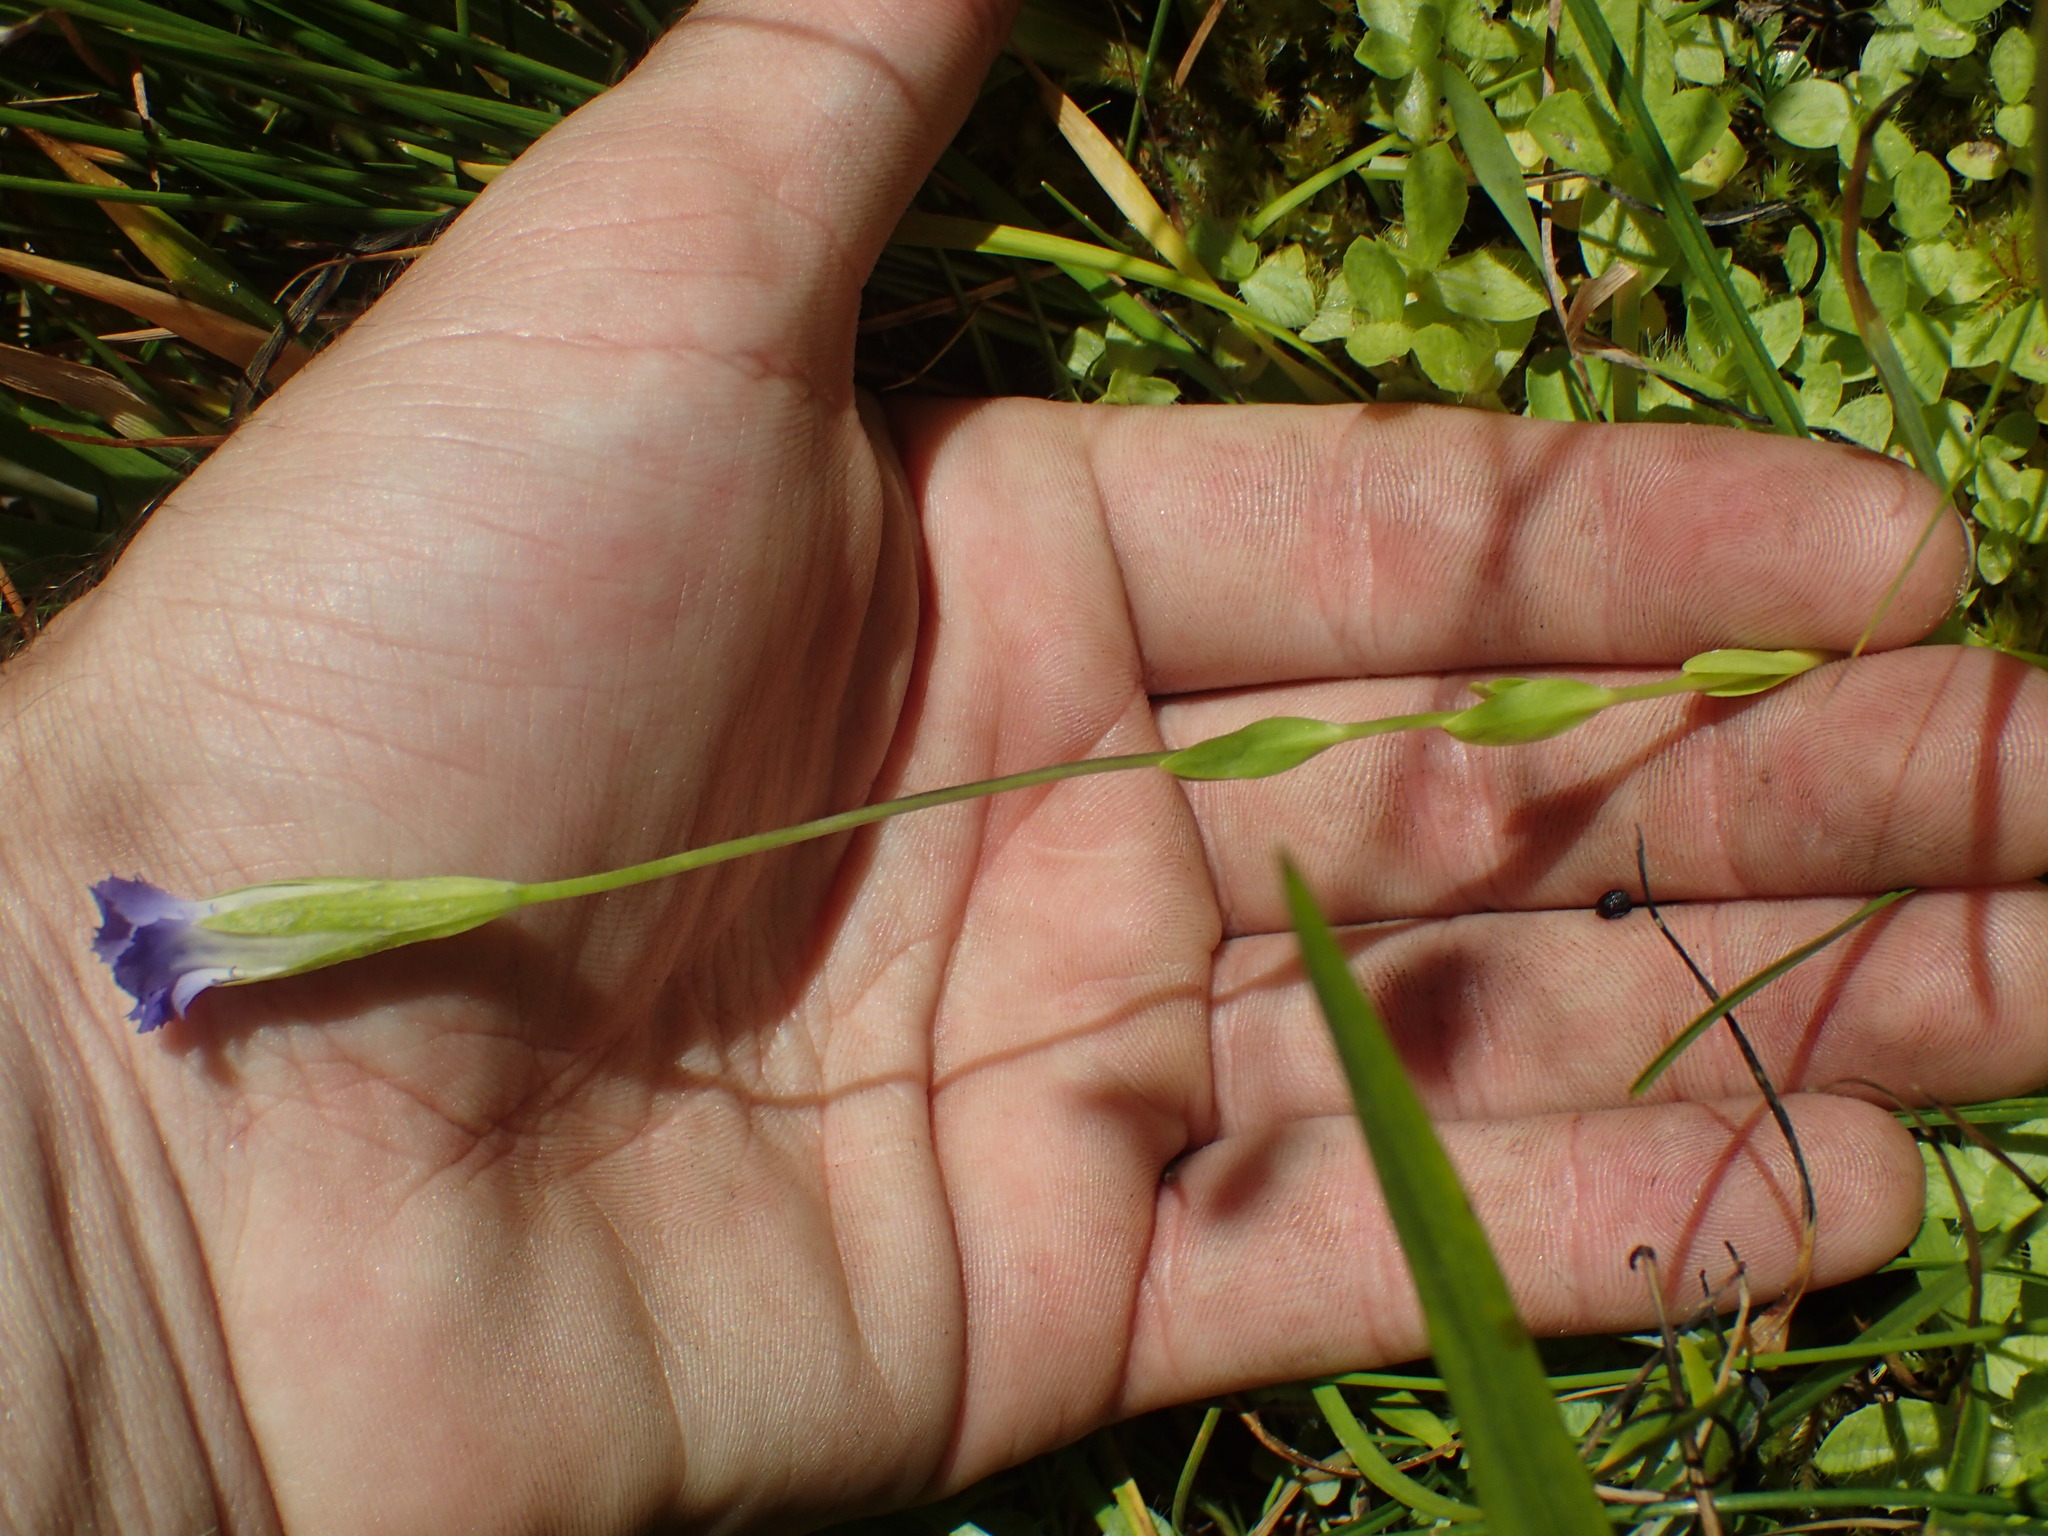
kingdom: Plantae
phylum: Tracheophyta
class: Magnoliopsida
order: Gentianales
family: Gentianaceae
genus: Gentianopsis
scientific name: Gentianopsis simplex
